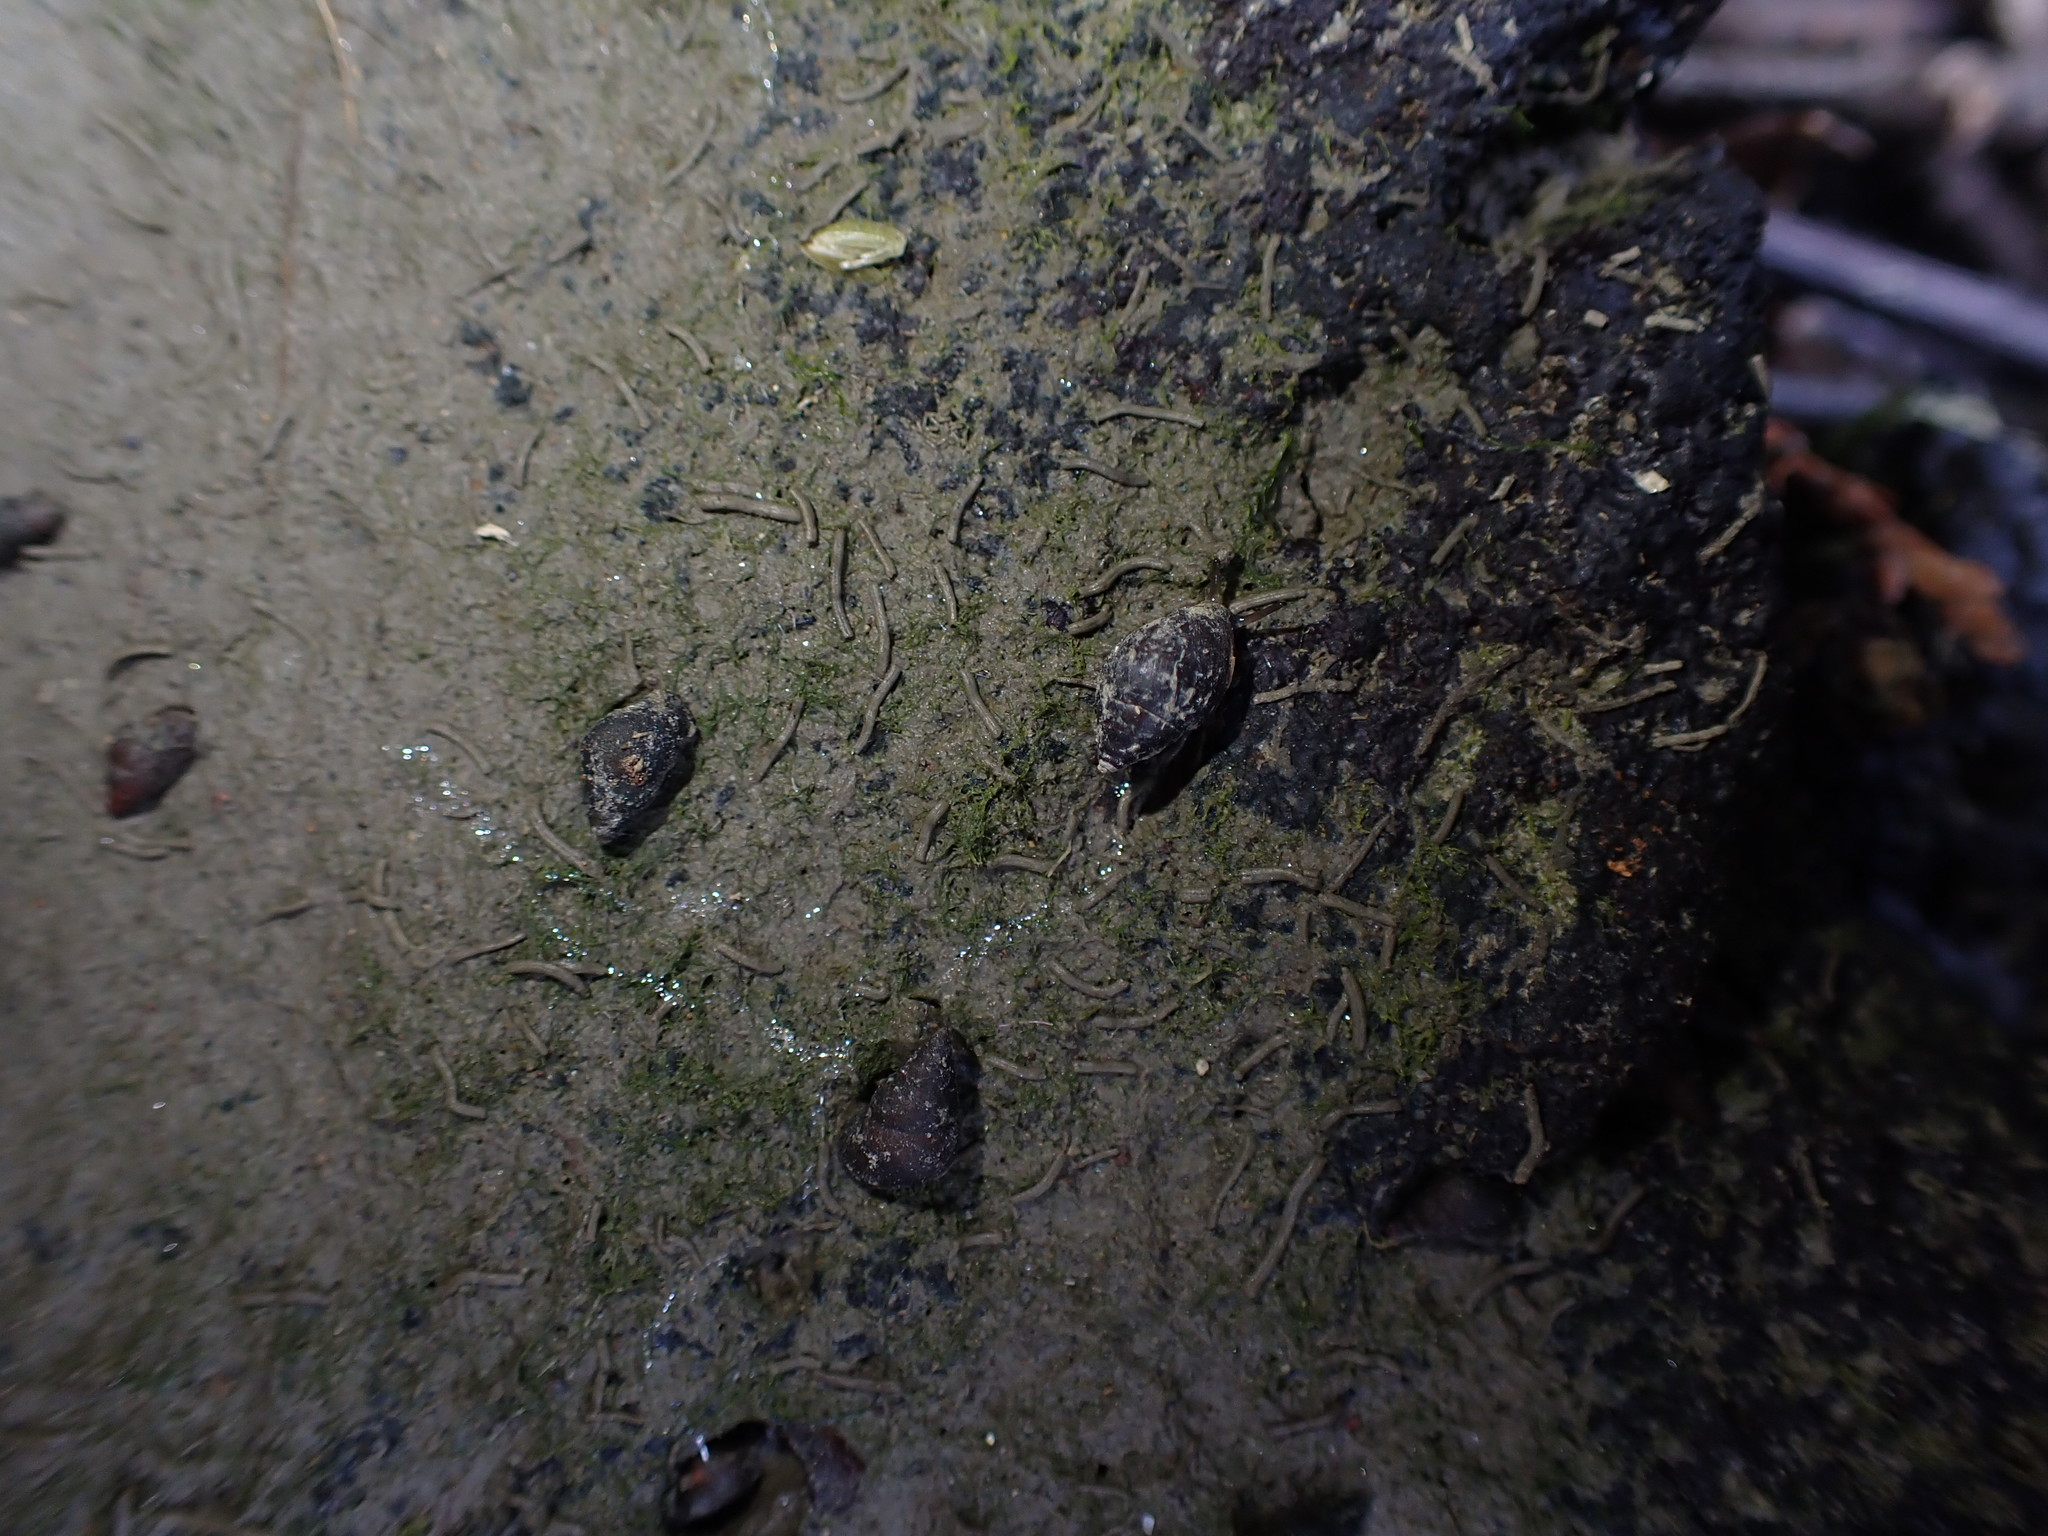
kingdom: Animalia
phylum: Mollusca
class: Gastropoda
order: Ellobiida
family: Ellobiidae
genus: Pleuroloba
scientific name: Pleuroloba costellaris
